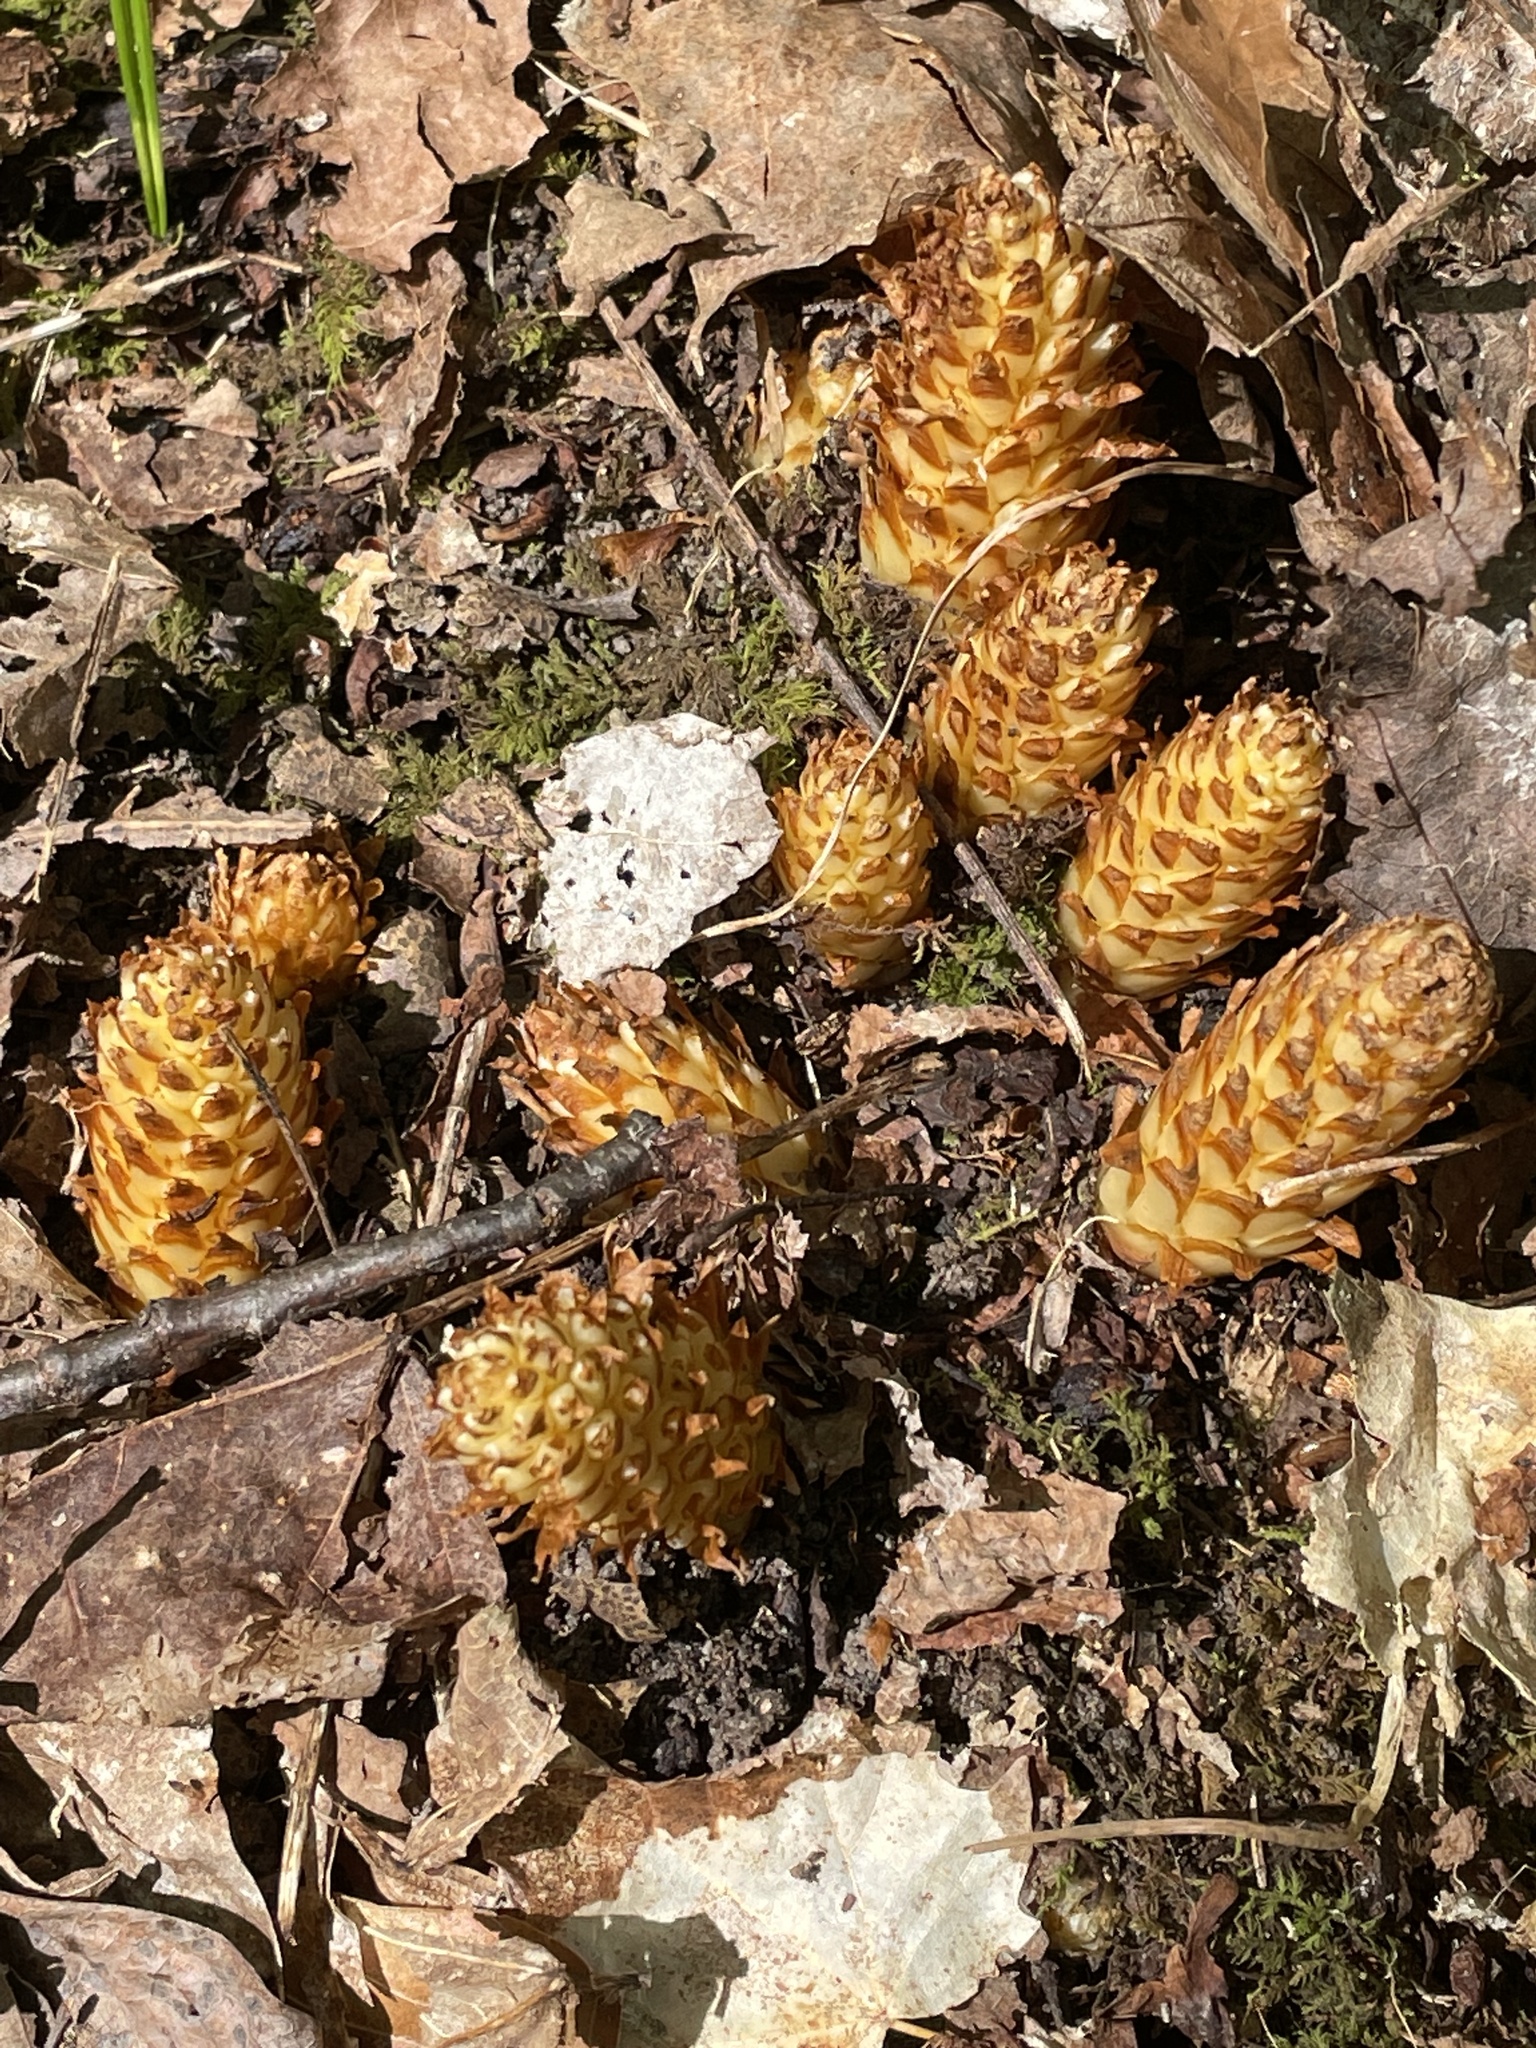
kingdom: Plantae
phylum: Tracheophyta
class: Magnoliopsida
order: Lamiales
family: Orobanchaceae
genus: Conopholis
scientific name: Conopholis americana
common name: American cancer-root
